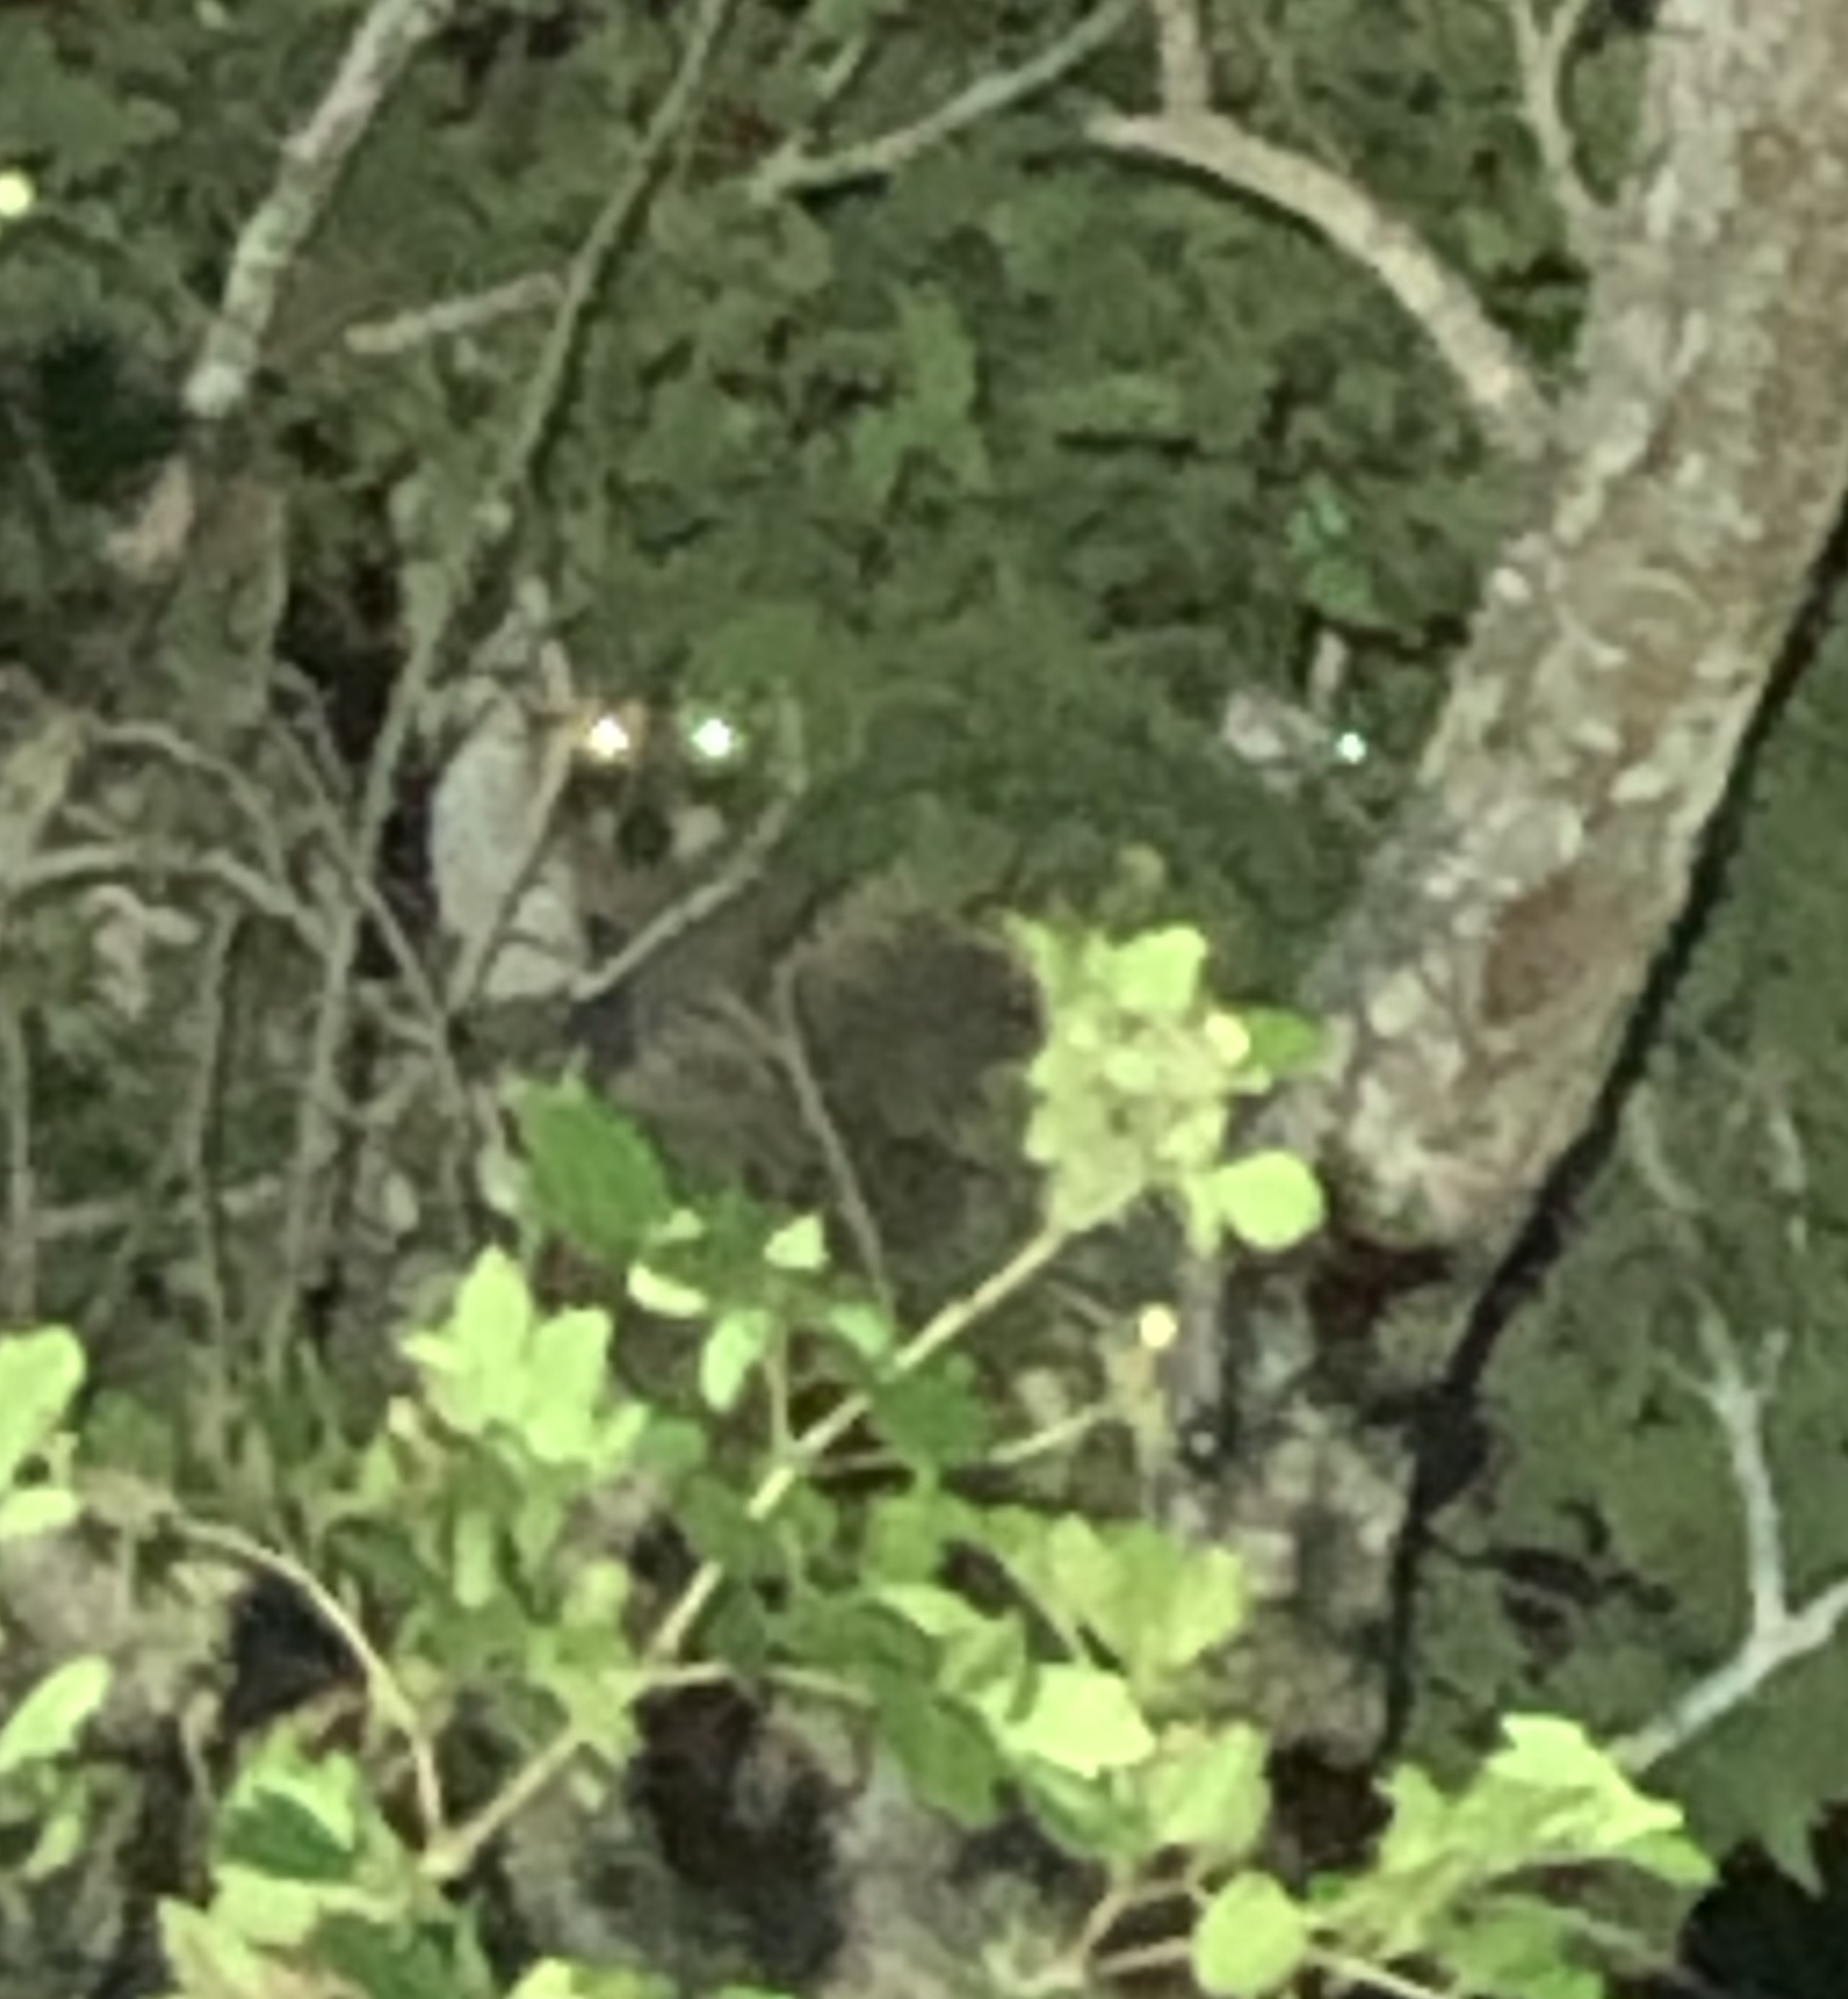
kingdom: Animalia
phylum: Chordata
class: Mammalia
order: Carnivora
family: Procyonidae
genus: Procyon
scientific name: Procyon lotor
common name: Raccoon
